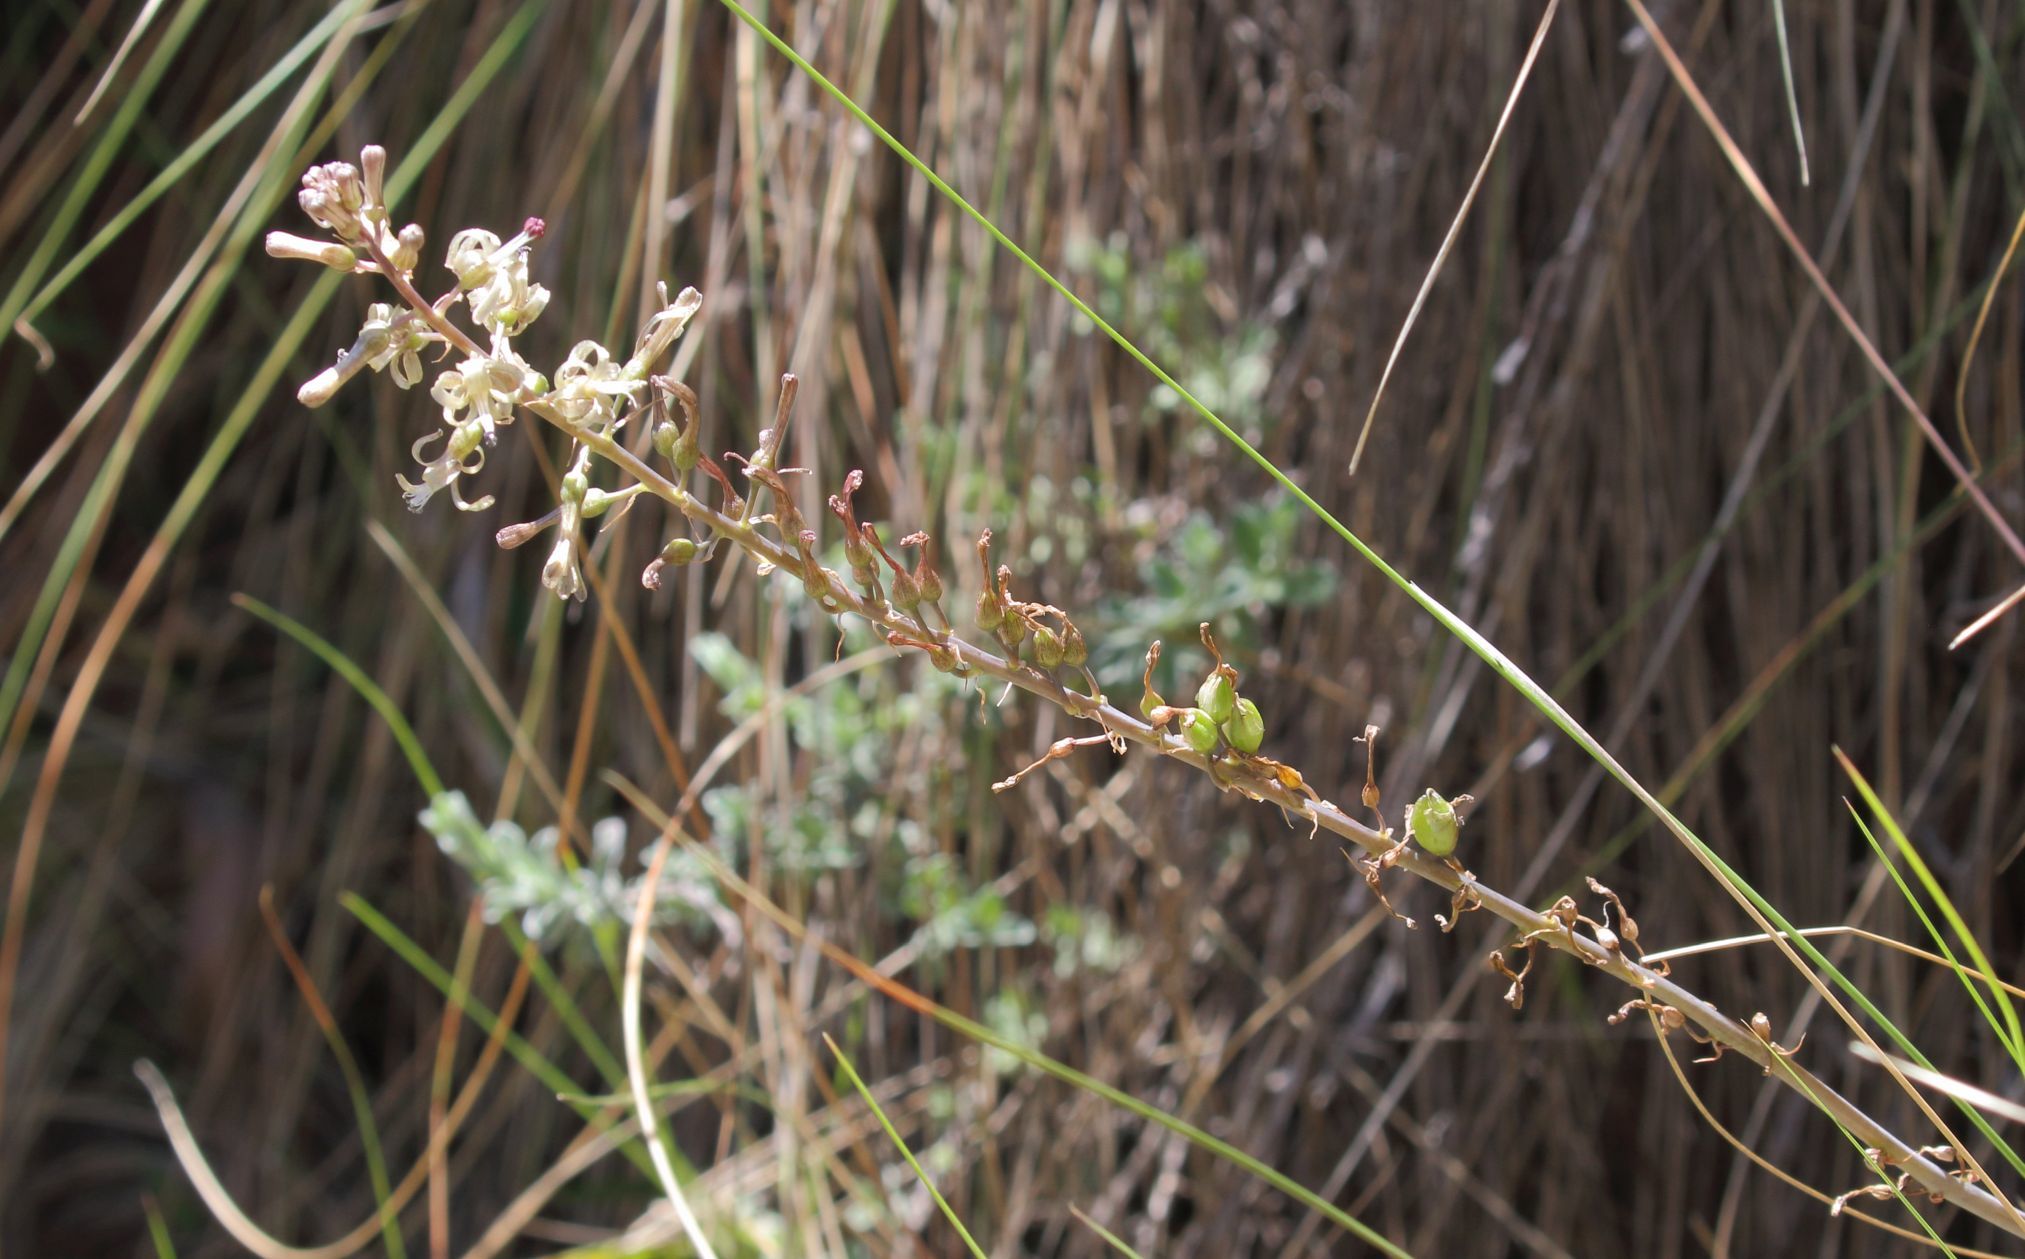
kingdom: Plantae
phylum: Tracheophyta
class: Liliopsida
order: Asparagales
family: Asparagaceae
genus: Drimia
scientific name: Drimia elata
